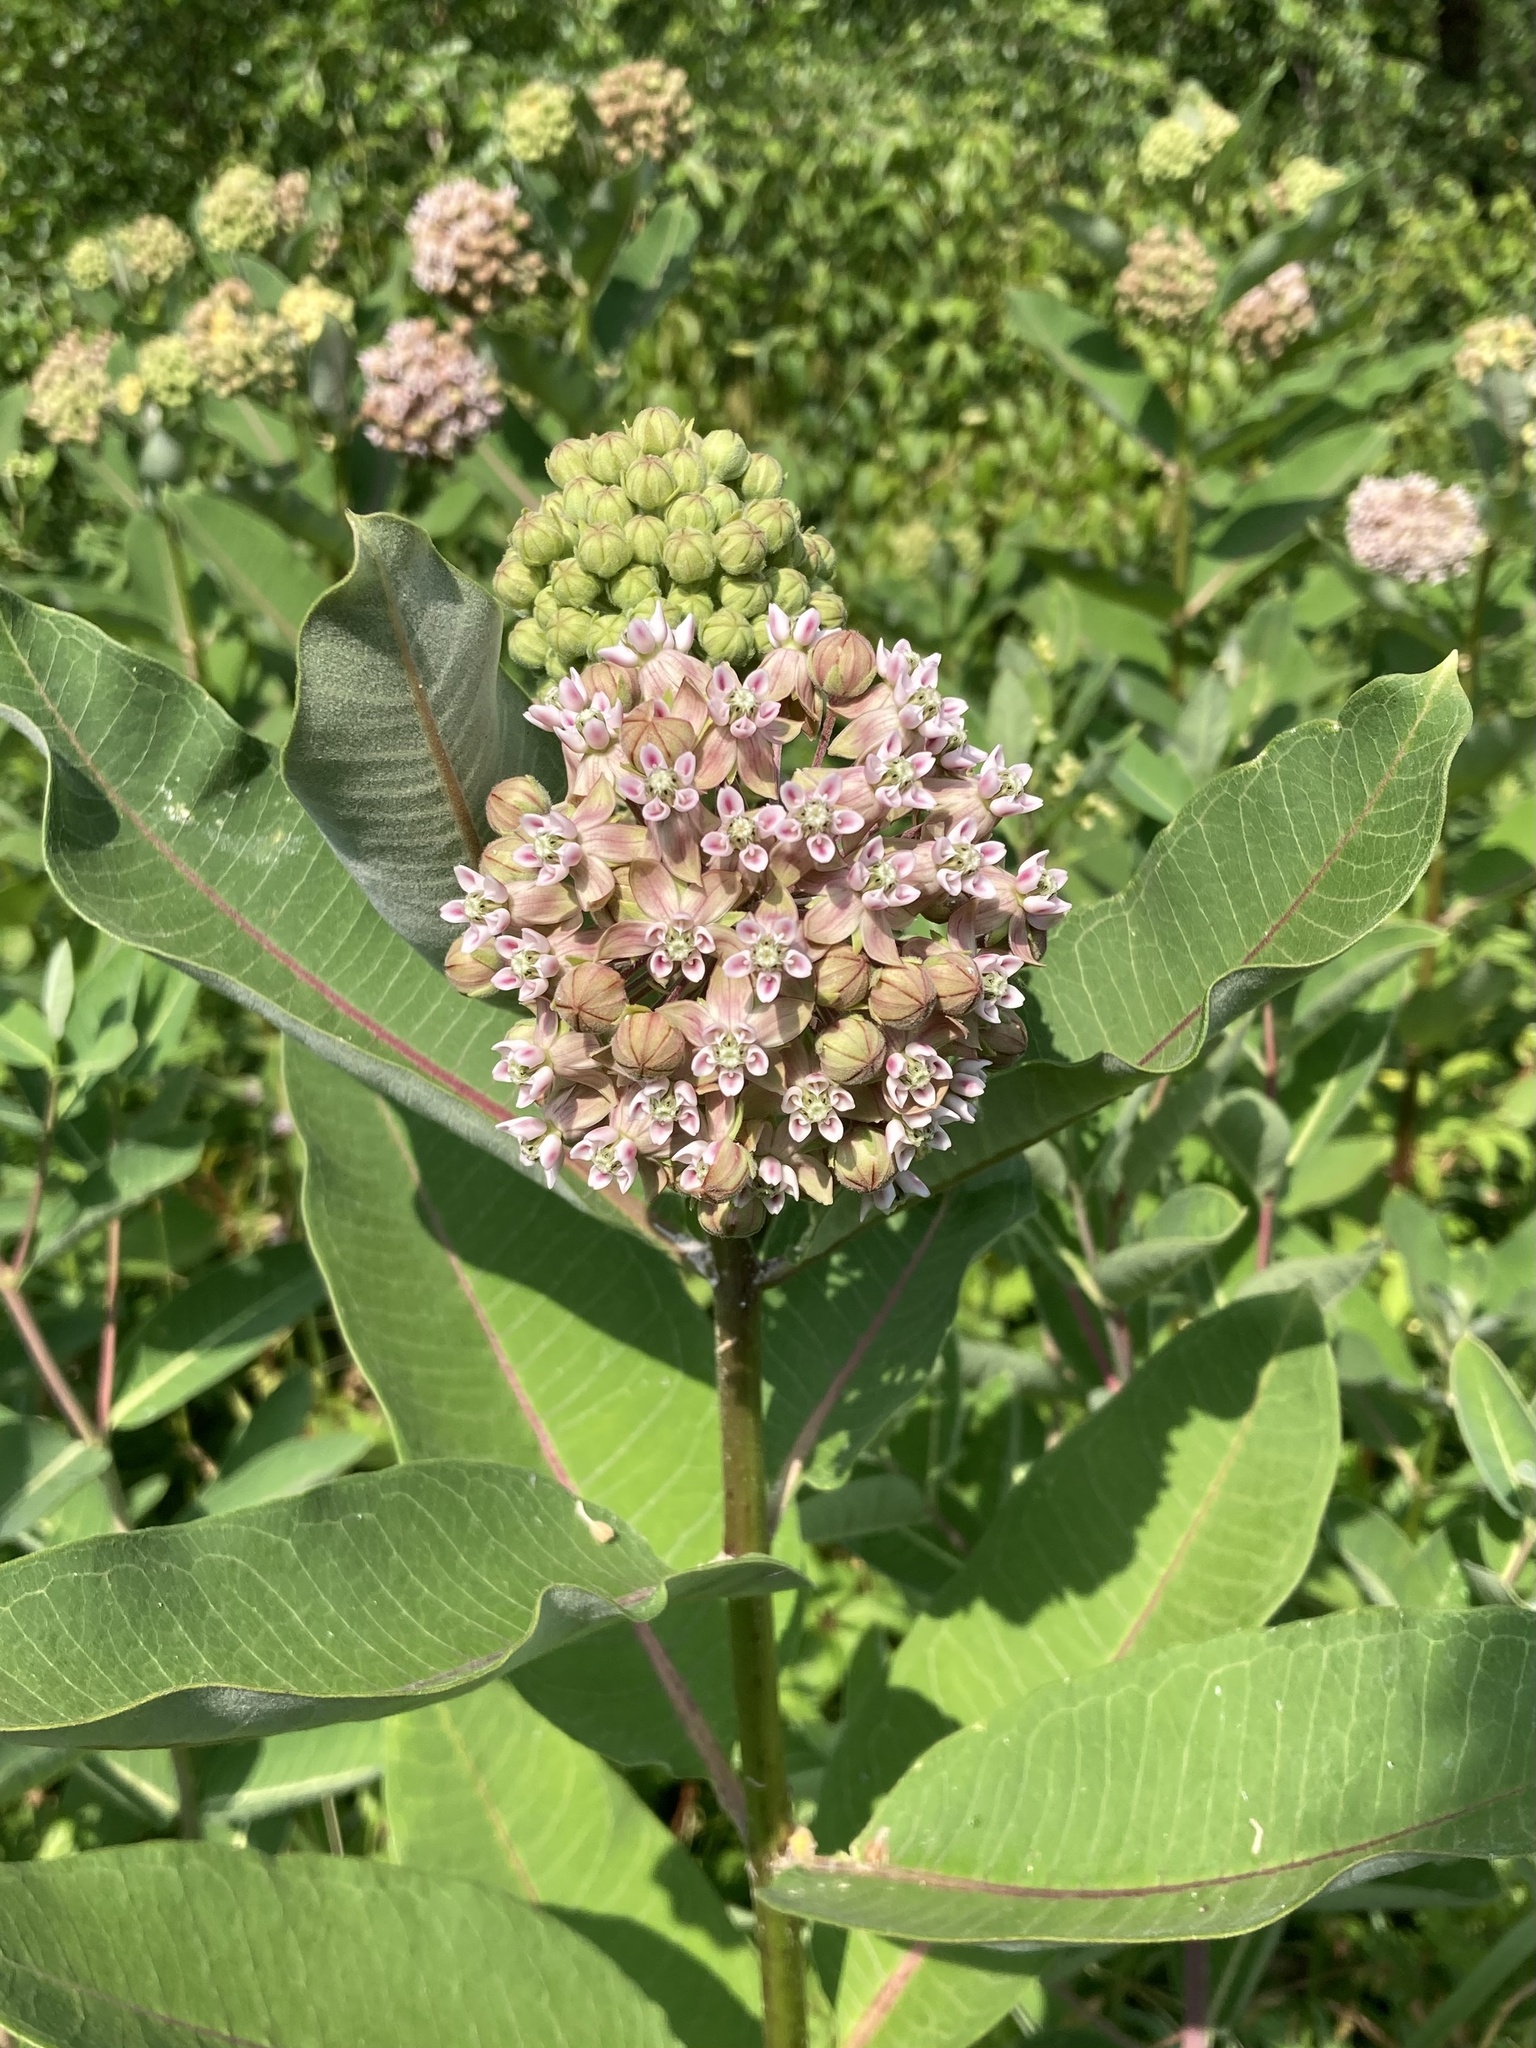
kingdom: Plantae
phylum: Tracheophyta
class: Magnoliopsida
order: Gentianales
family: Apocynaceae
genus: Asclepias
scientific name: Asclepias syriaca
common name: Common milkweed
